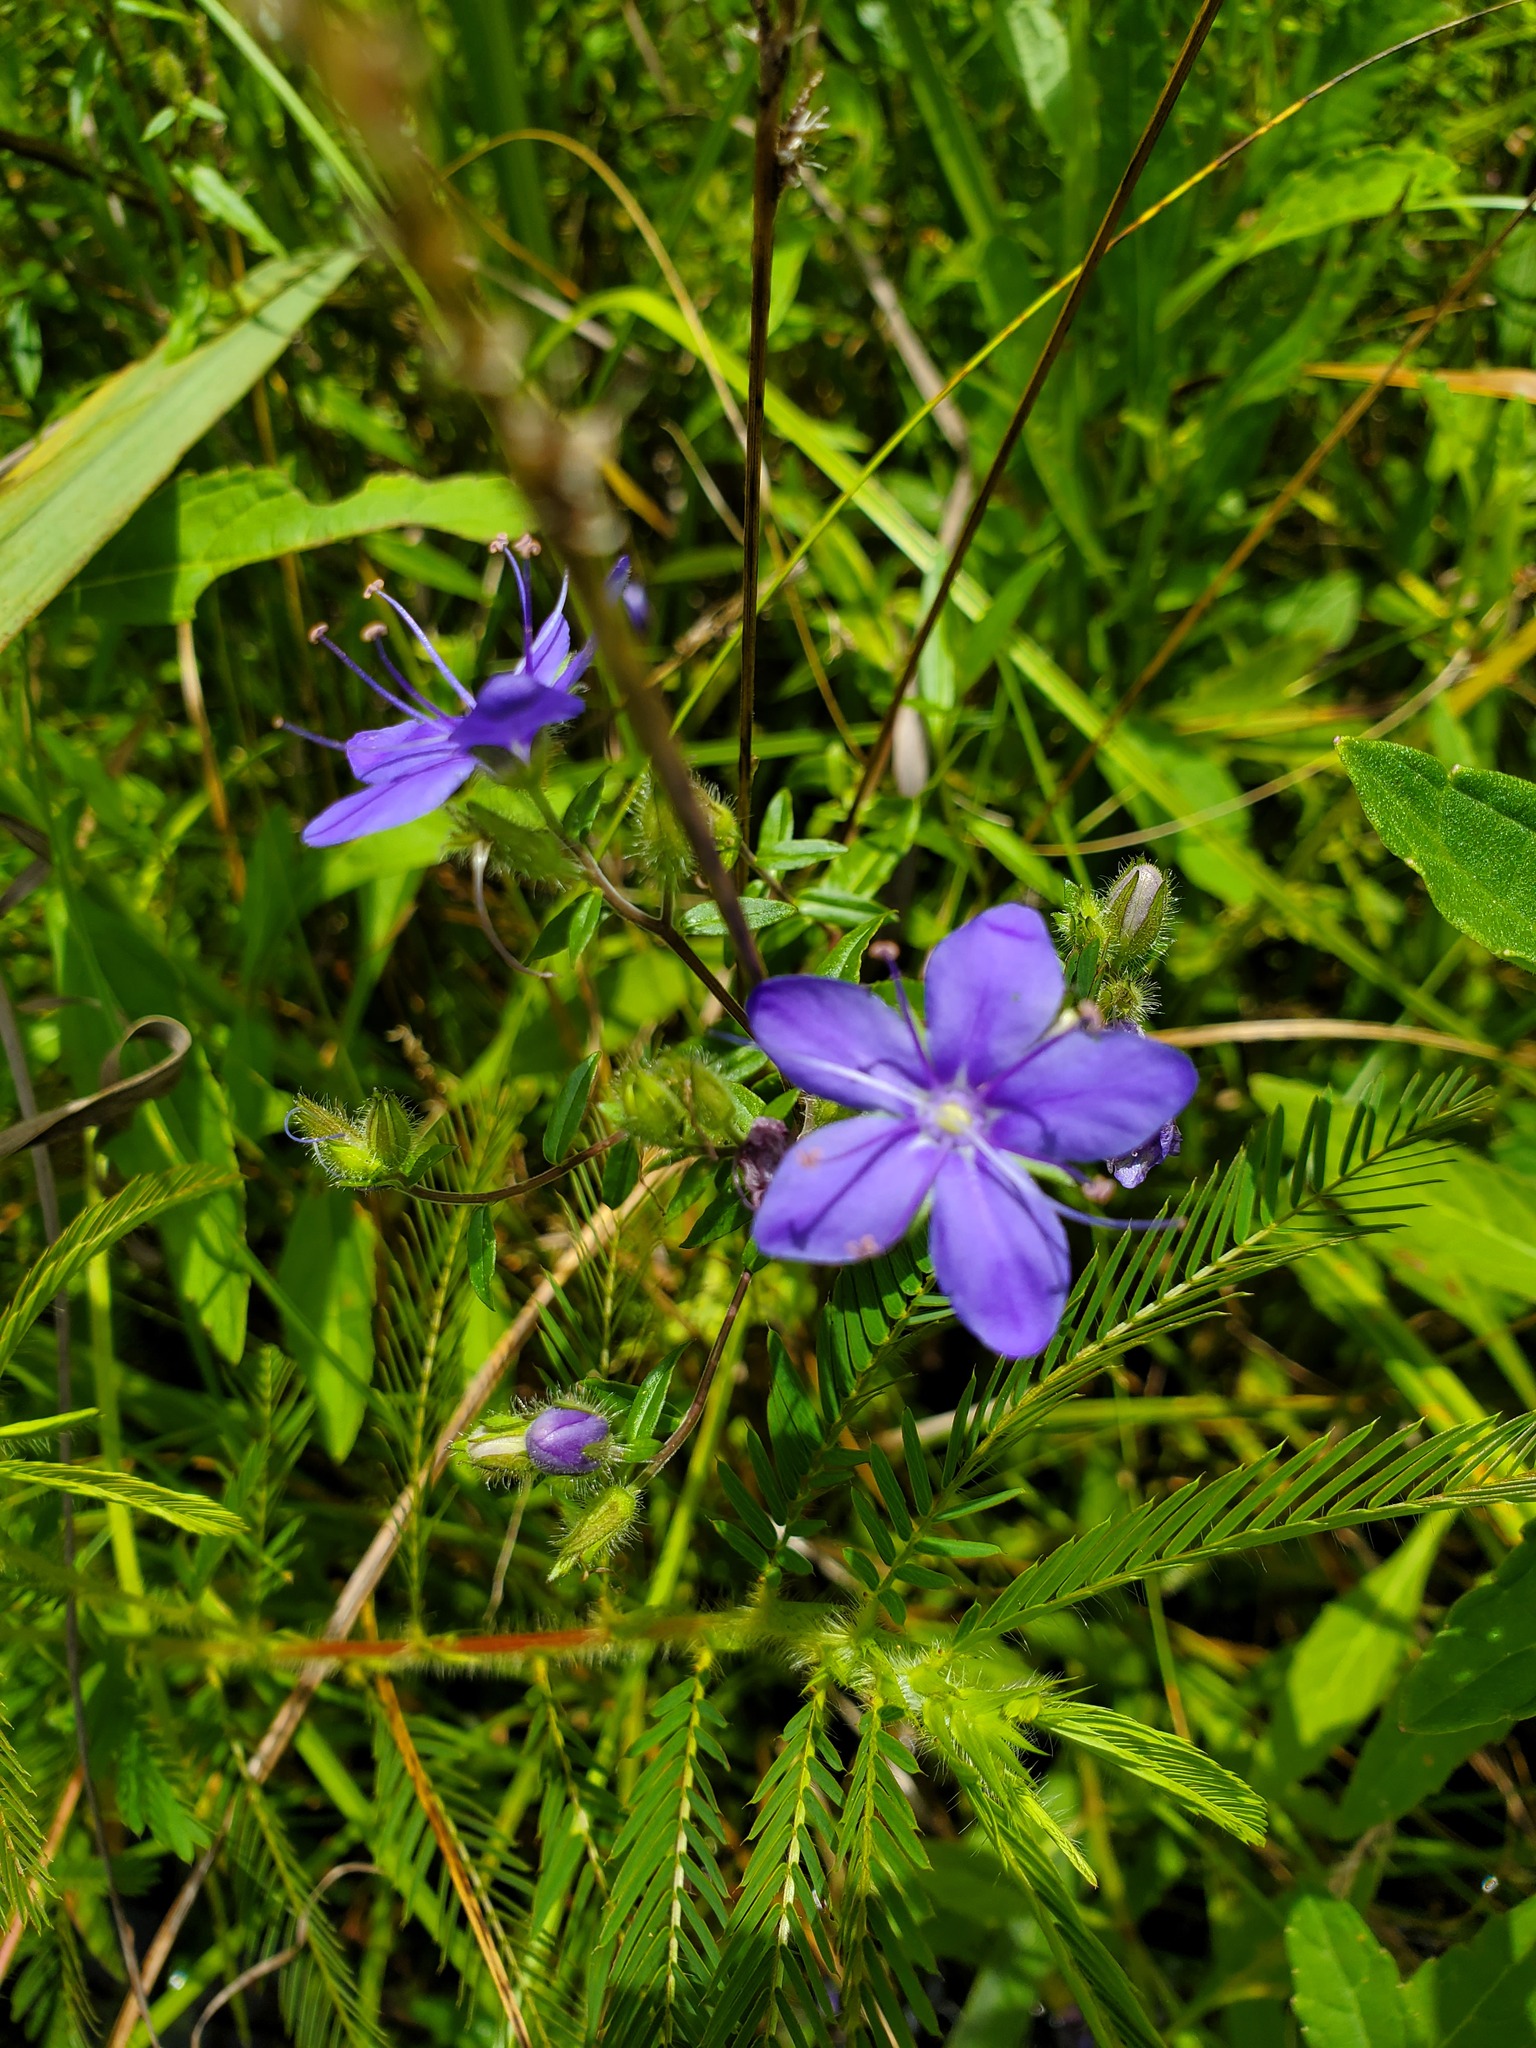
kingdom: Plantae
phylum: Tracheophyta
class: Magnoliopsida
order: Solanales
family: Hydroleaceae
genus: Hydrolea
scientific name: Hydrolea corymbosa
